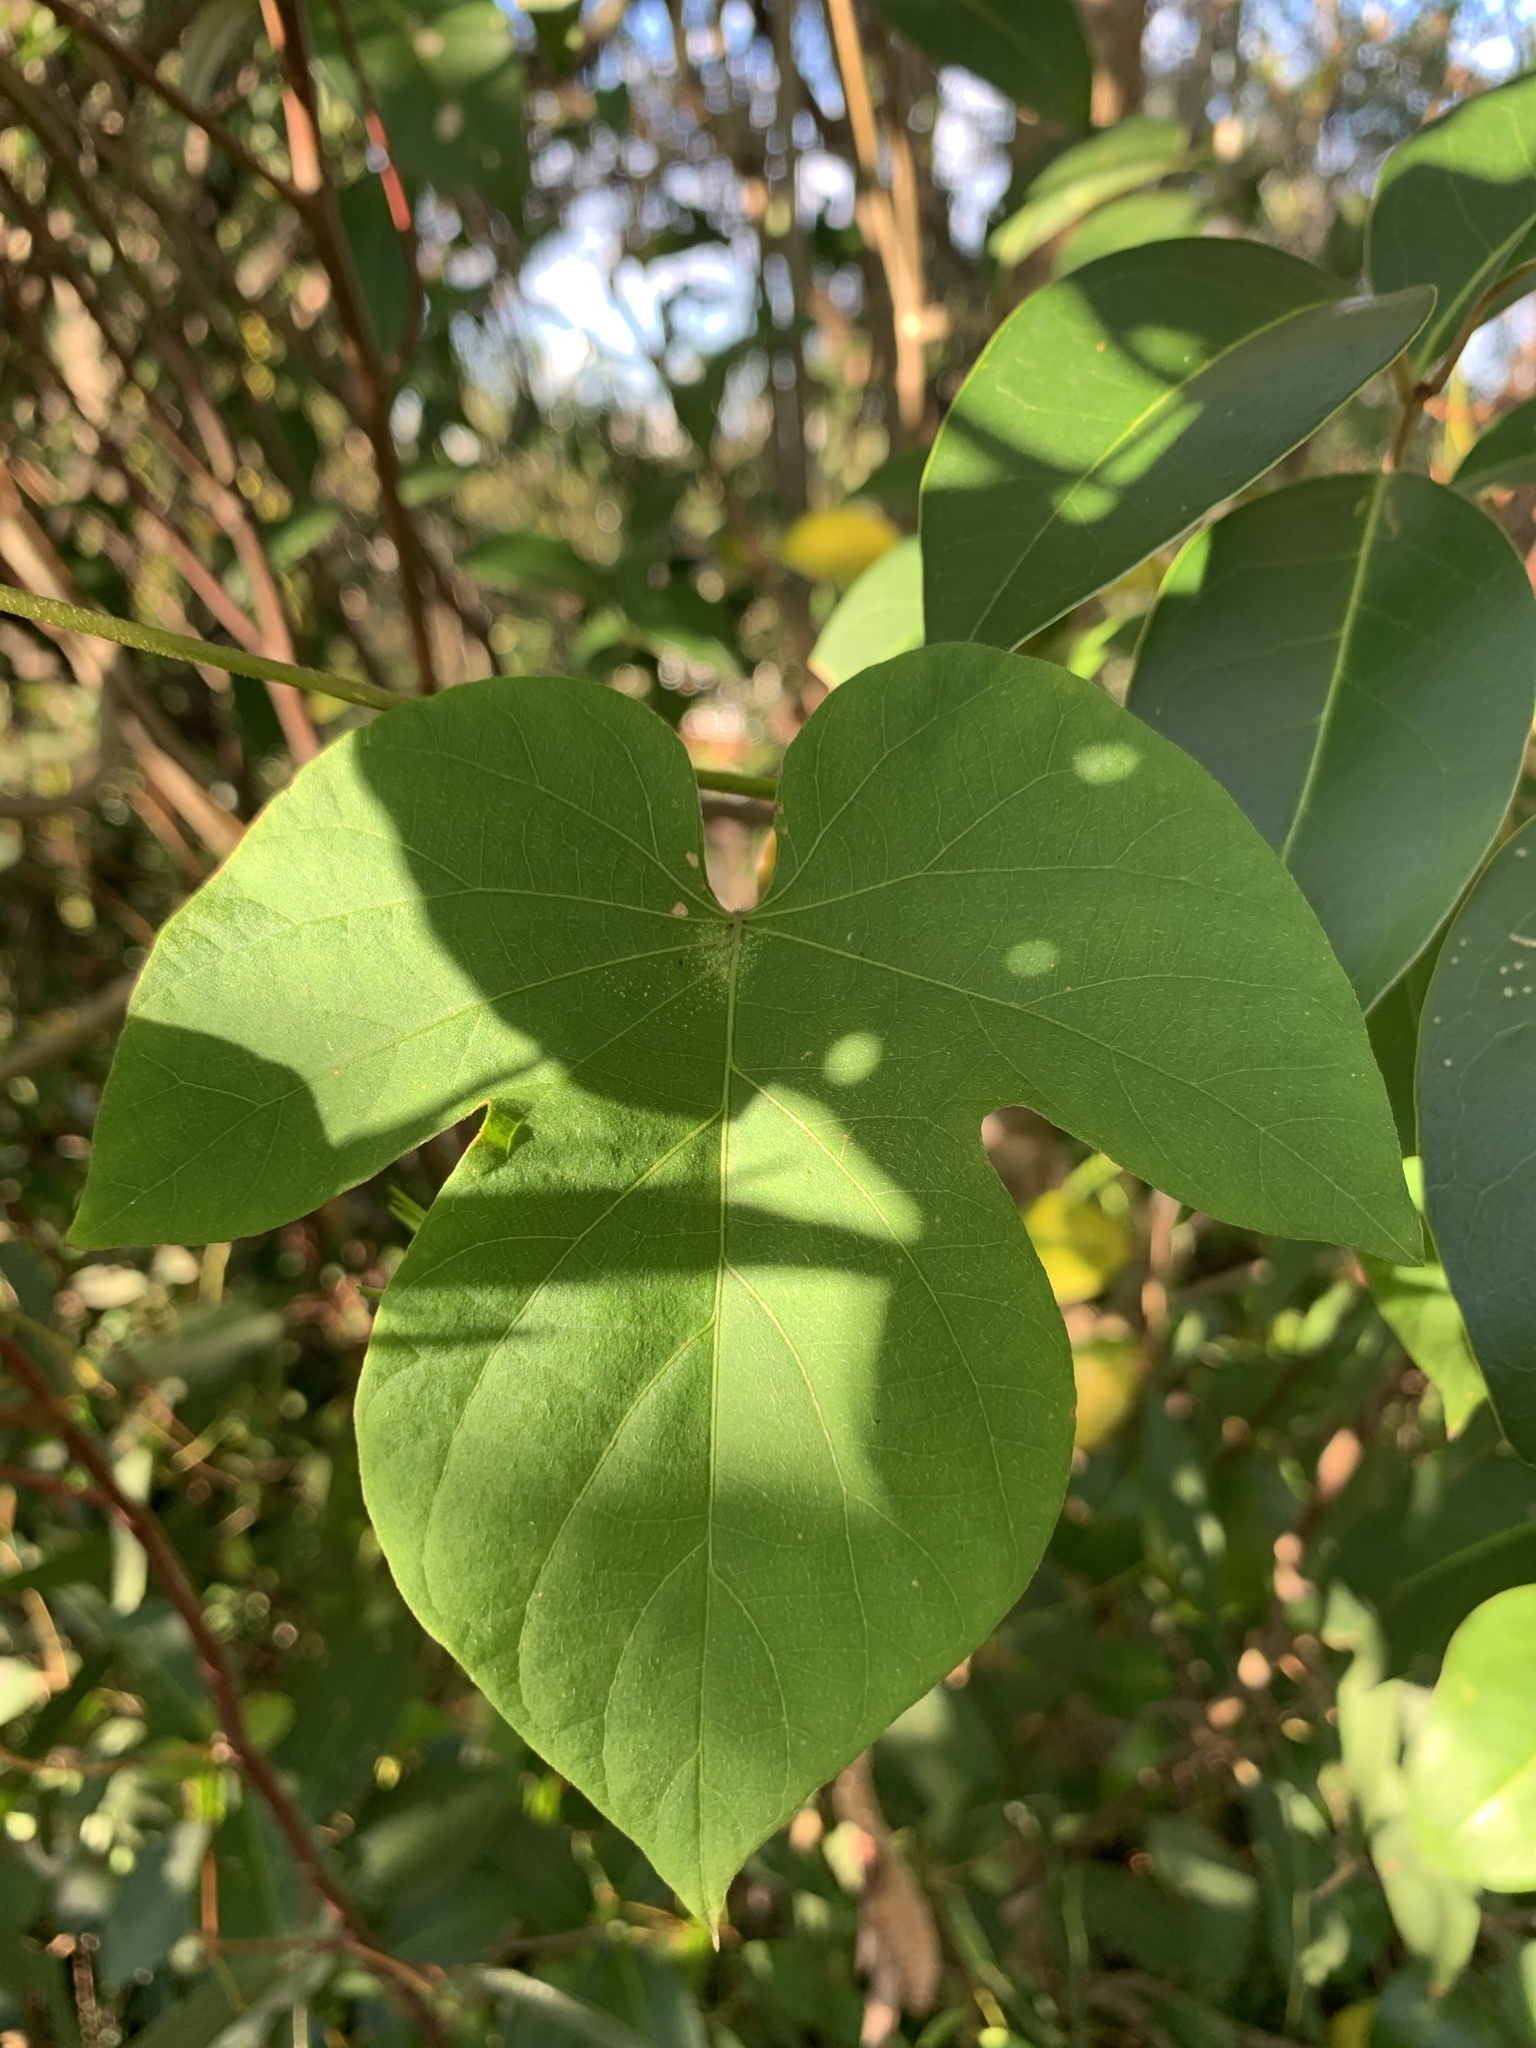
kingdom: Plantae
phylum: Tracheophyta
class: Magnoliopsida
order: Solanales
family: Convolvulaceae
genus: Ipomoea
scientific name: Ipomoea indica
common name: Blue dawnflower
